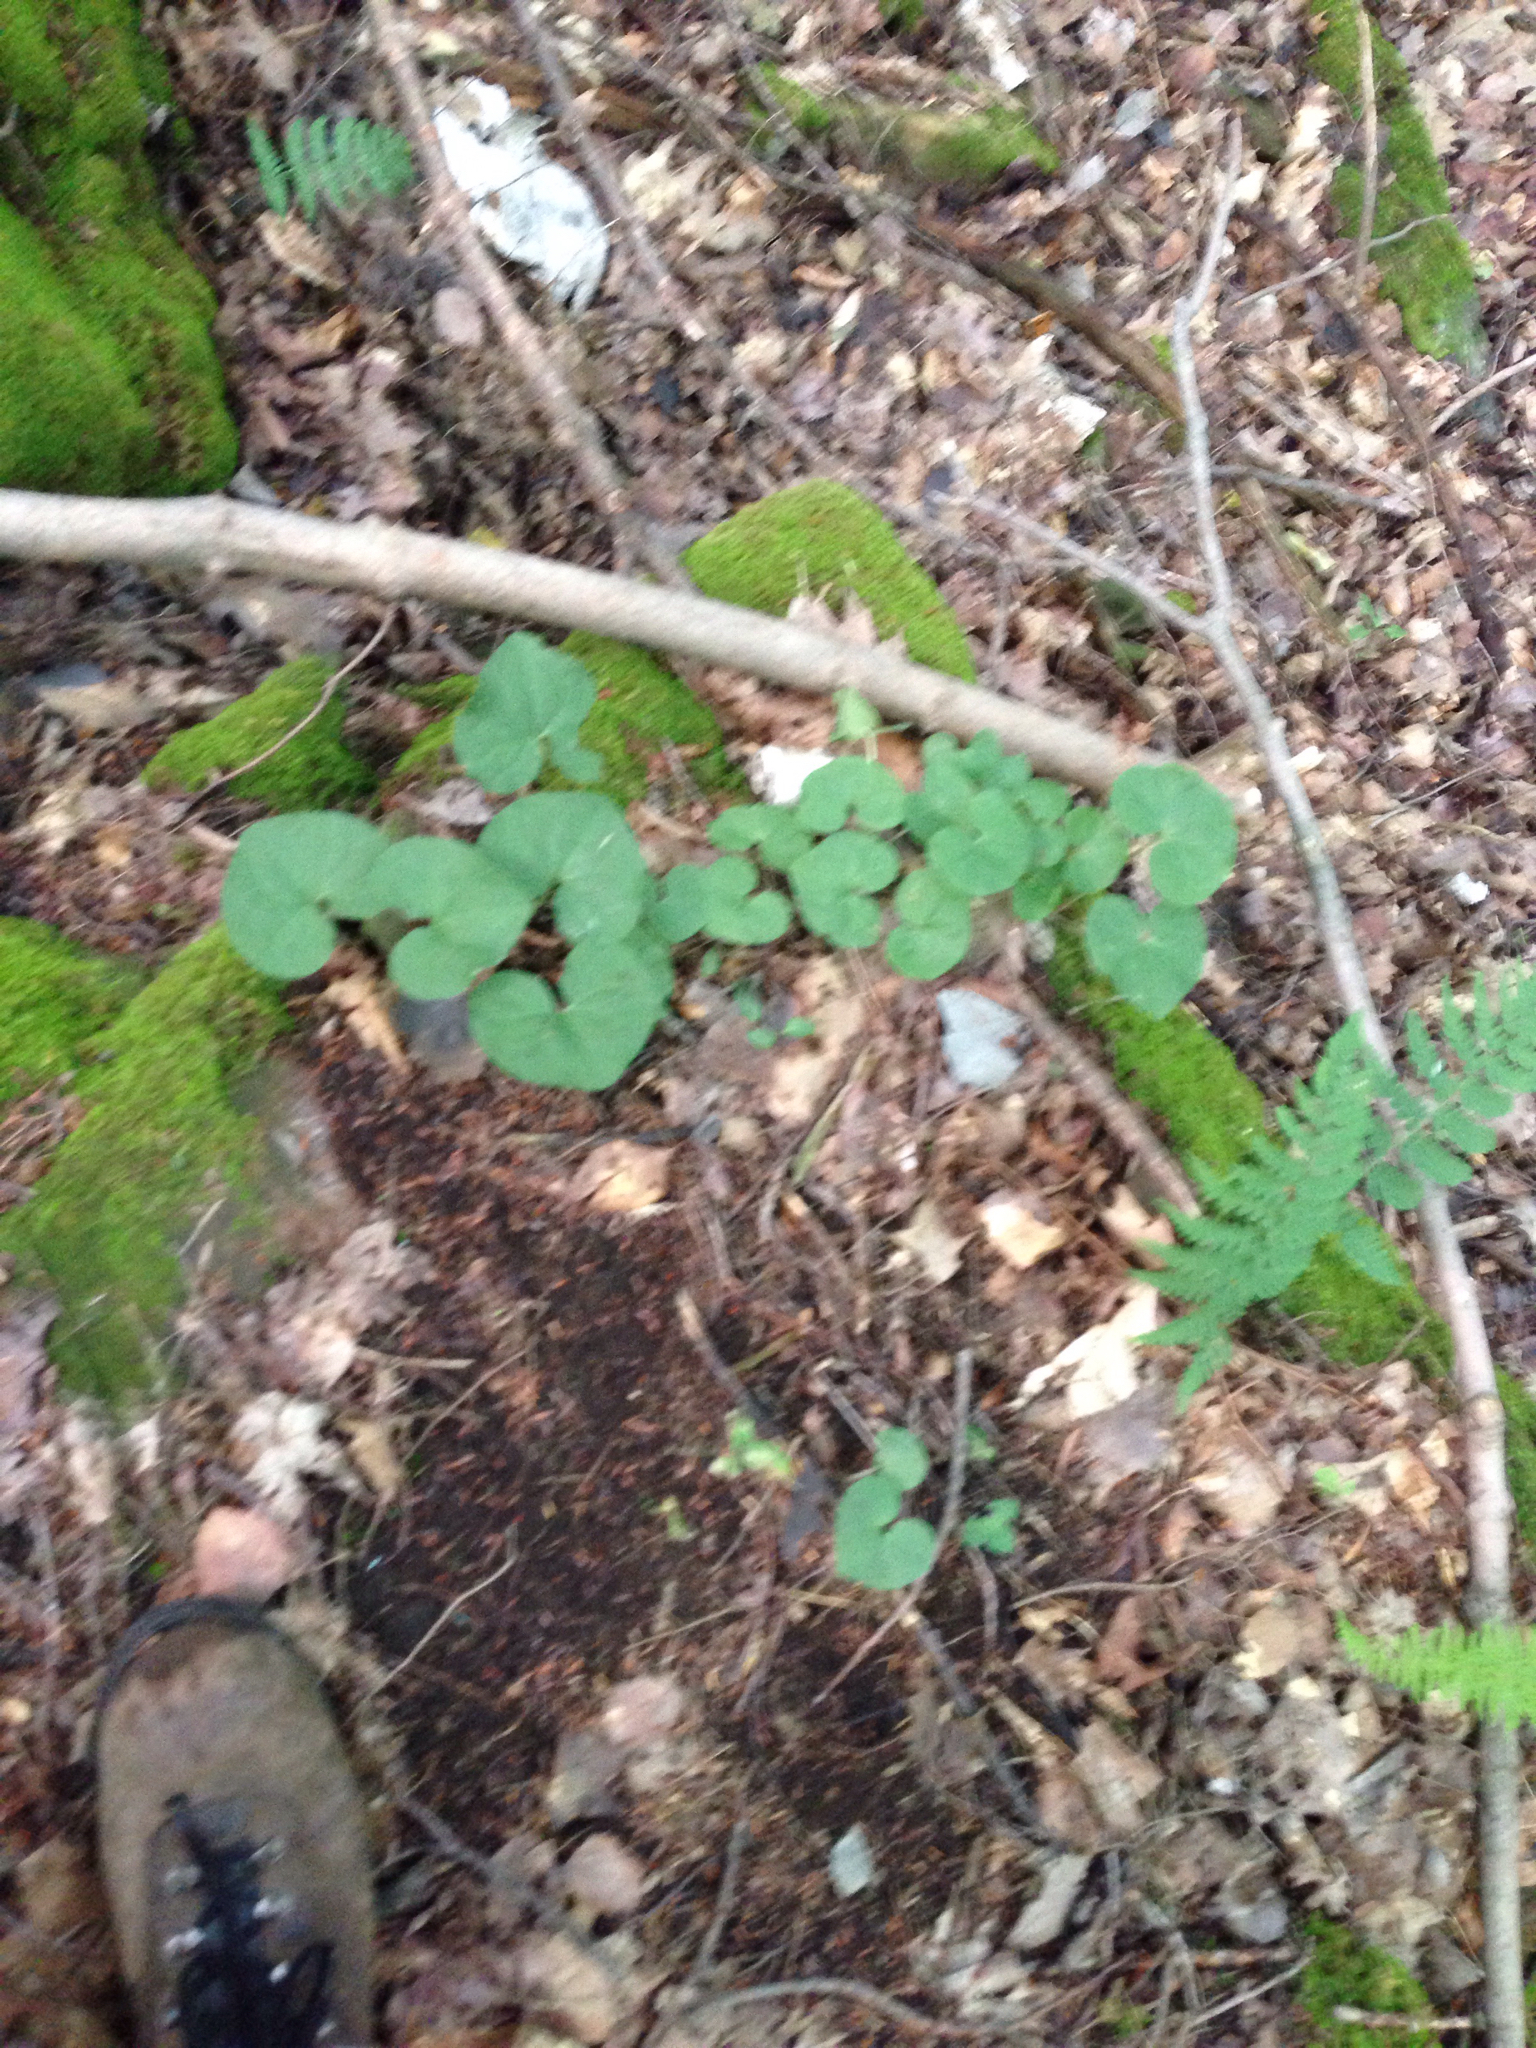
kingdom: Plantae
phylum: Tracheophyta
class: Magnoliopsida
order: Piperales
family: Aristolochiaceae
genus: Asarum
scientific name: Asarum canadense
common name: Wild ginger
